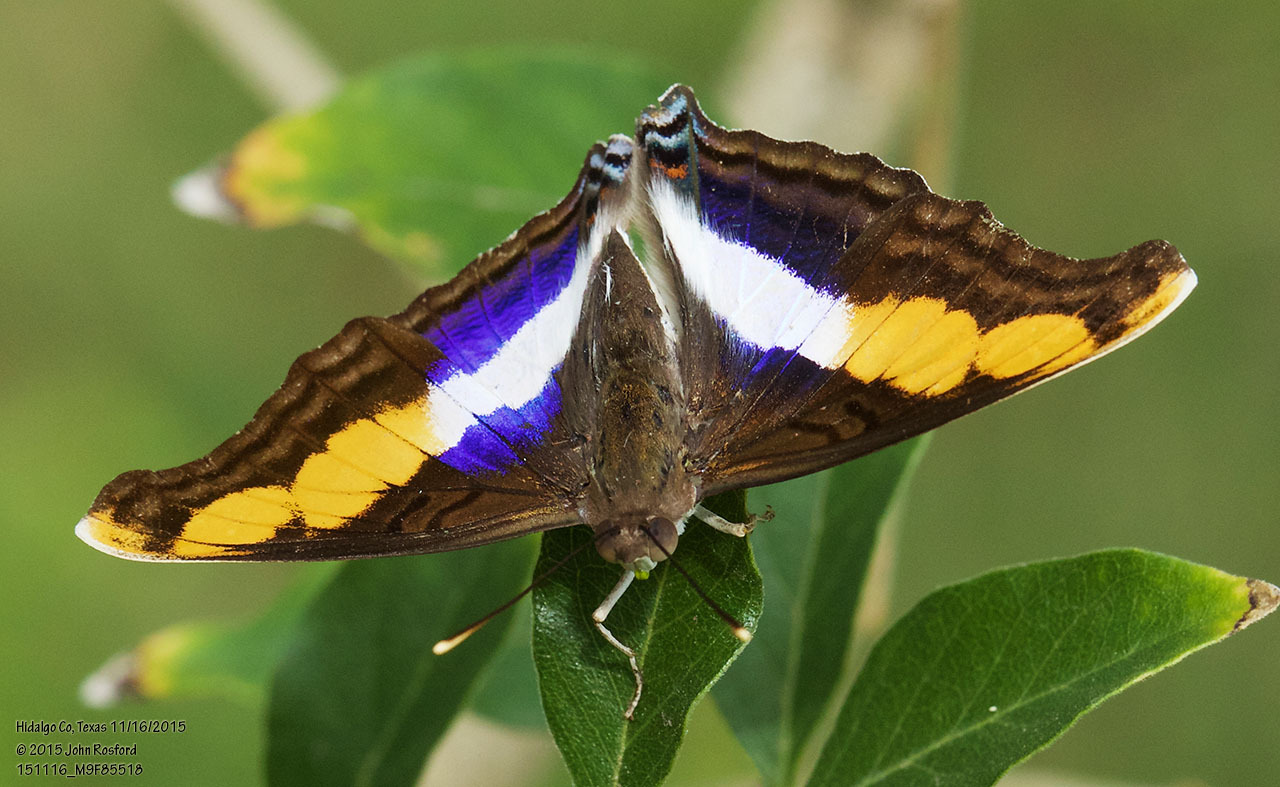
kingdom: Animalia
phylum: Arthropoda
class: Insecta
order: Lepidoptera
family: Nymphalidae
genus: Doxocopa
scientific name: Doxocopa laure
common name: Silver emperor
